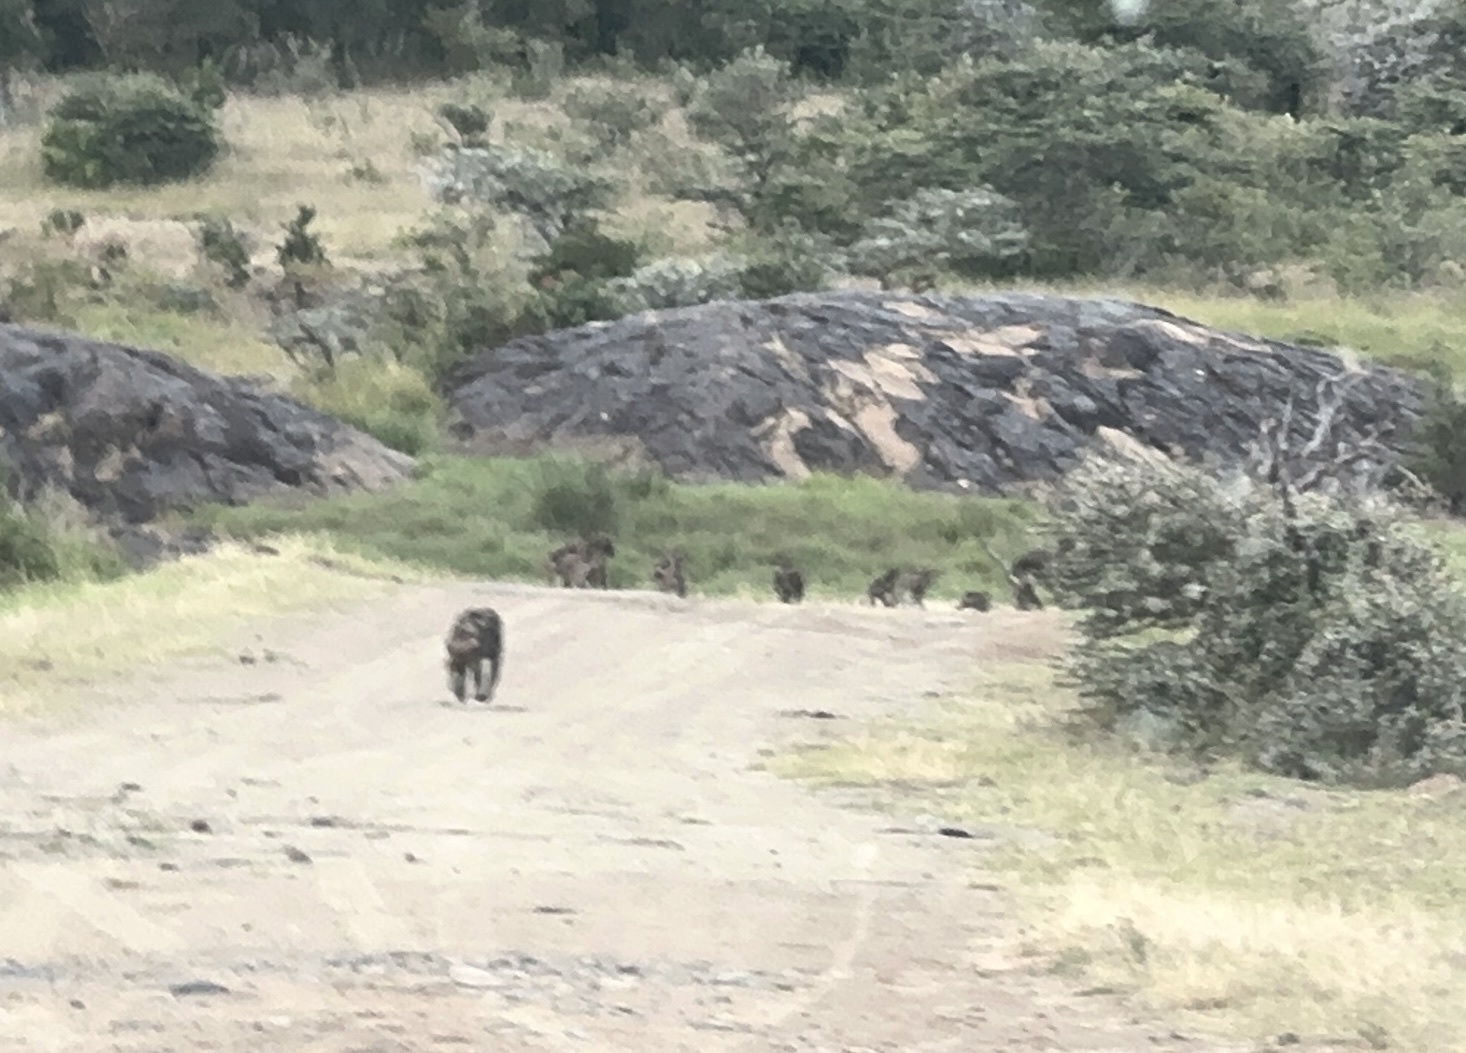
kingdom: Animalia
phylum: Chordata
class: Mammalia
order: Primates
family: Cercopithecidae
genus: Papio
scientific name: Papio anubis
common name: Olive baboon
